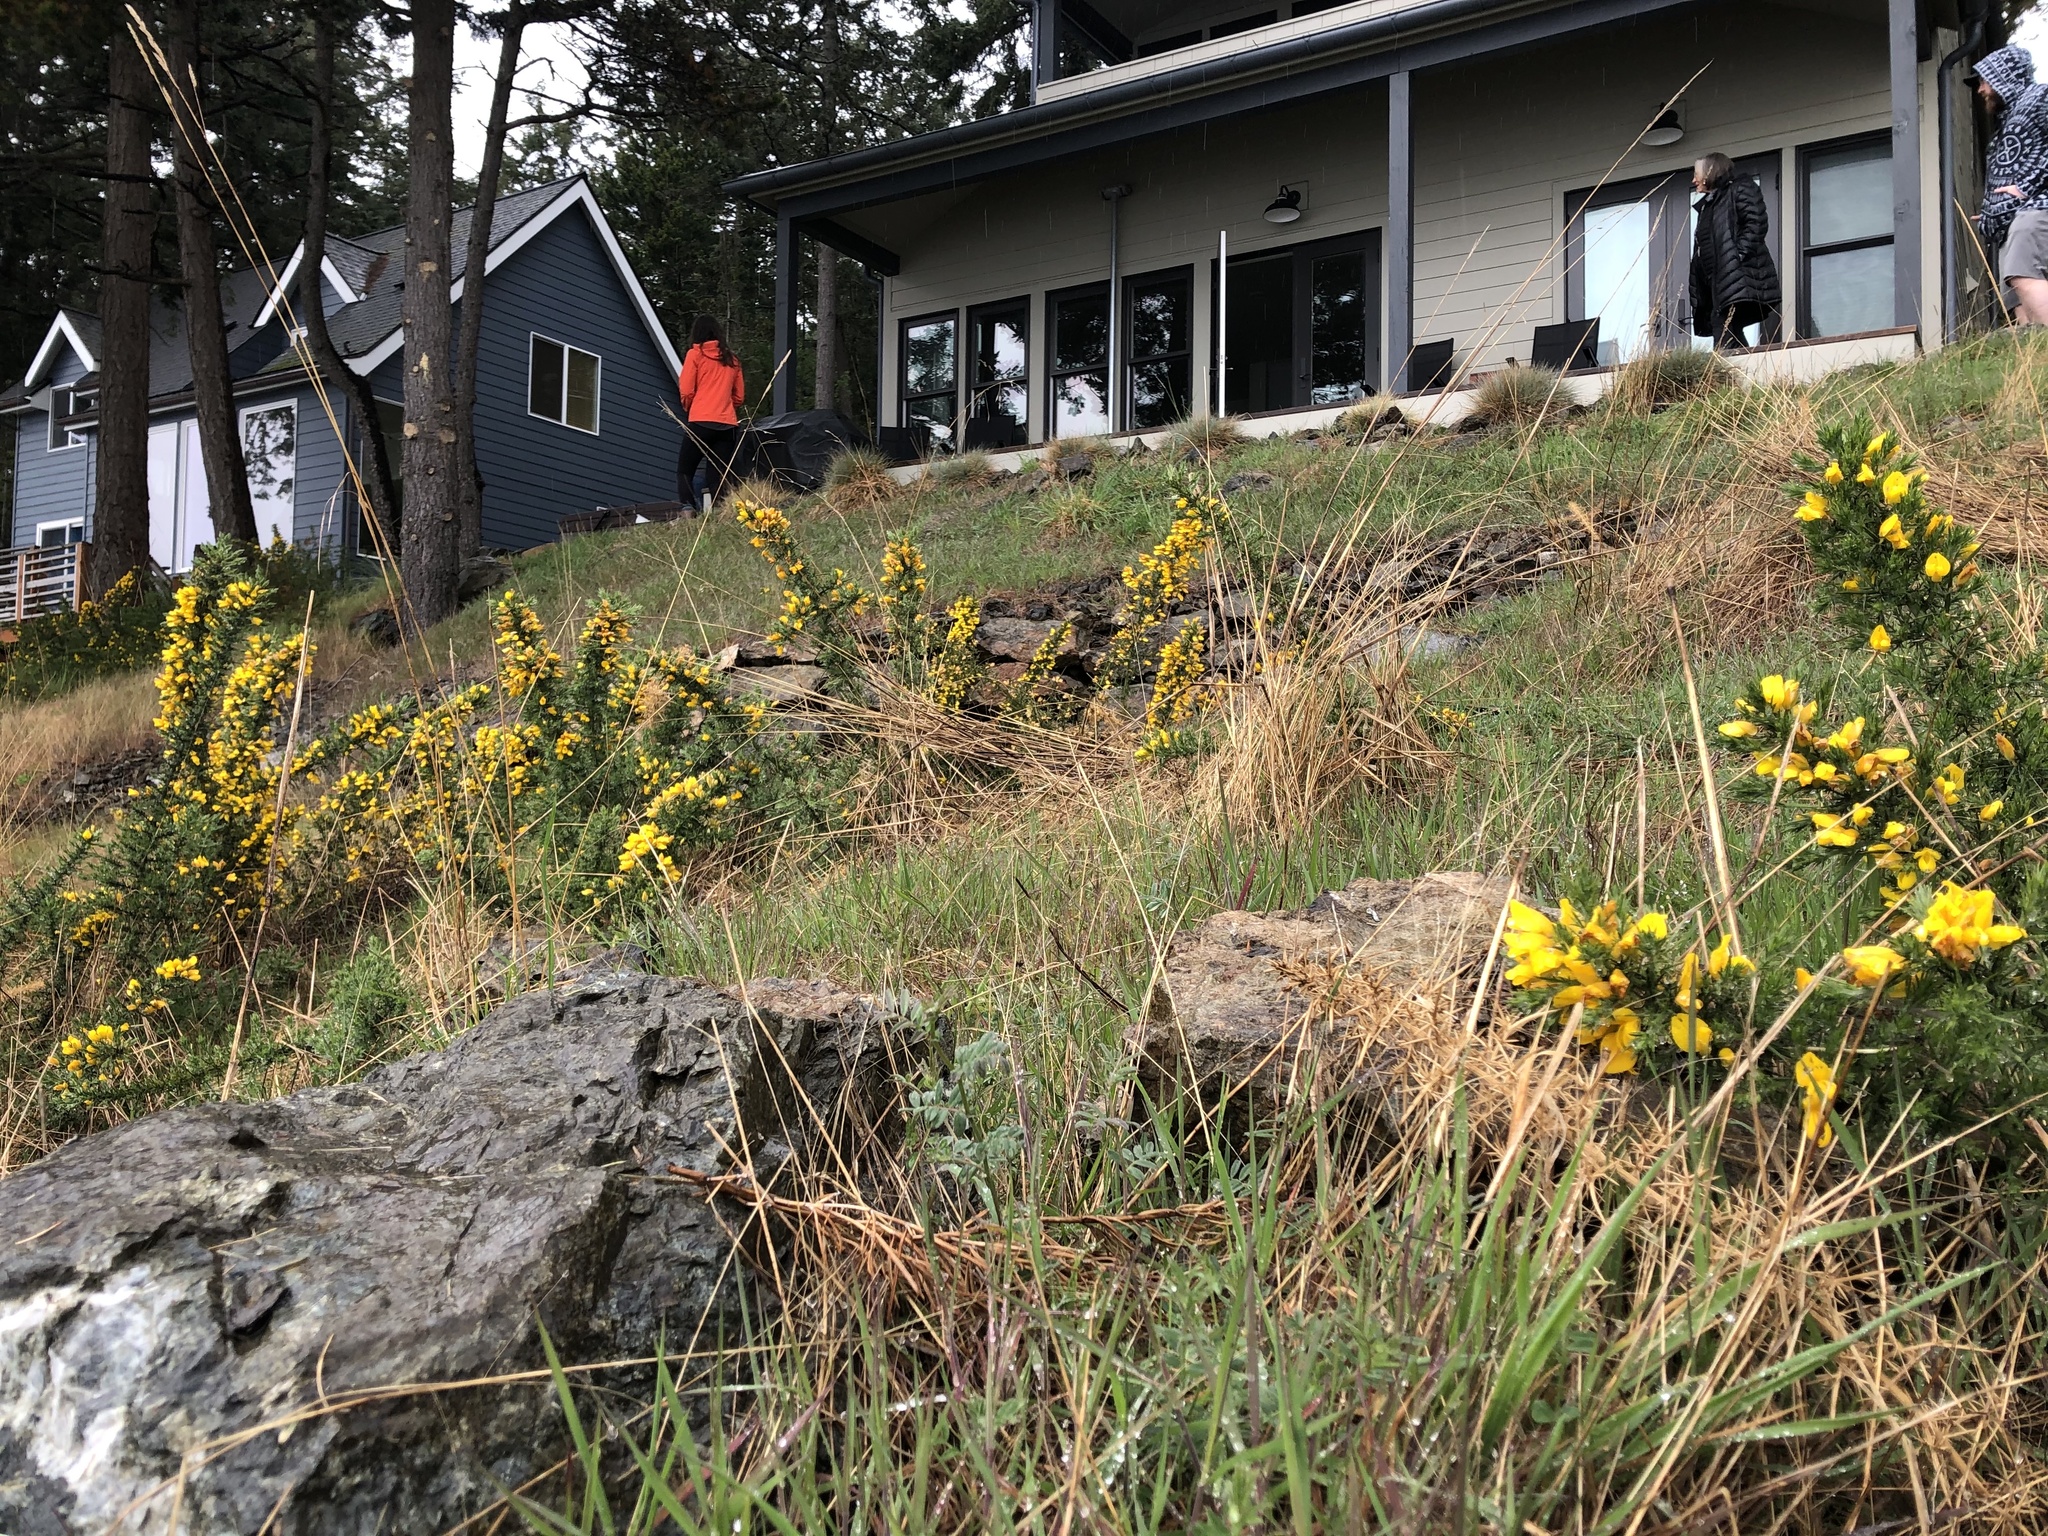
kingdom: Plantae
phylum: Tracheophyta
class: Magnoliopsida
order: Fabales
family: Fabaceae
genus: Ulex
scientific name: Ulex europaeus
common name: Common gorse
